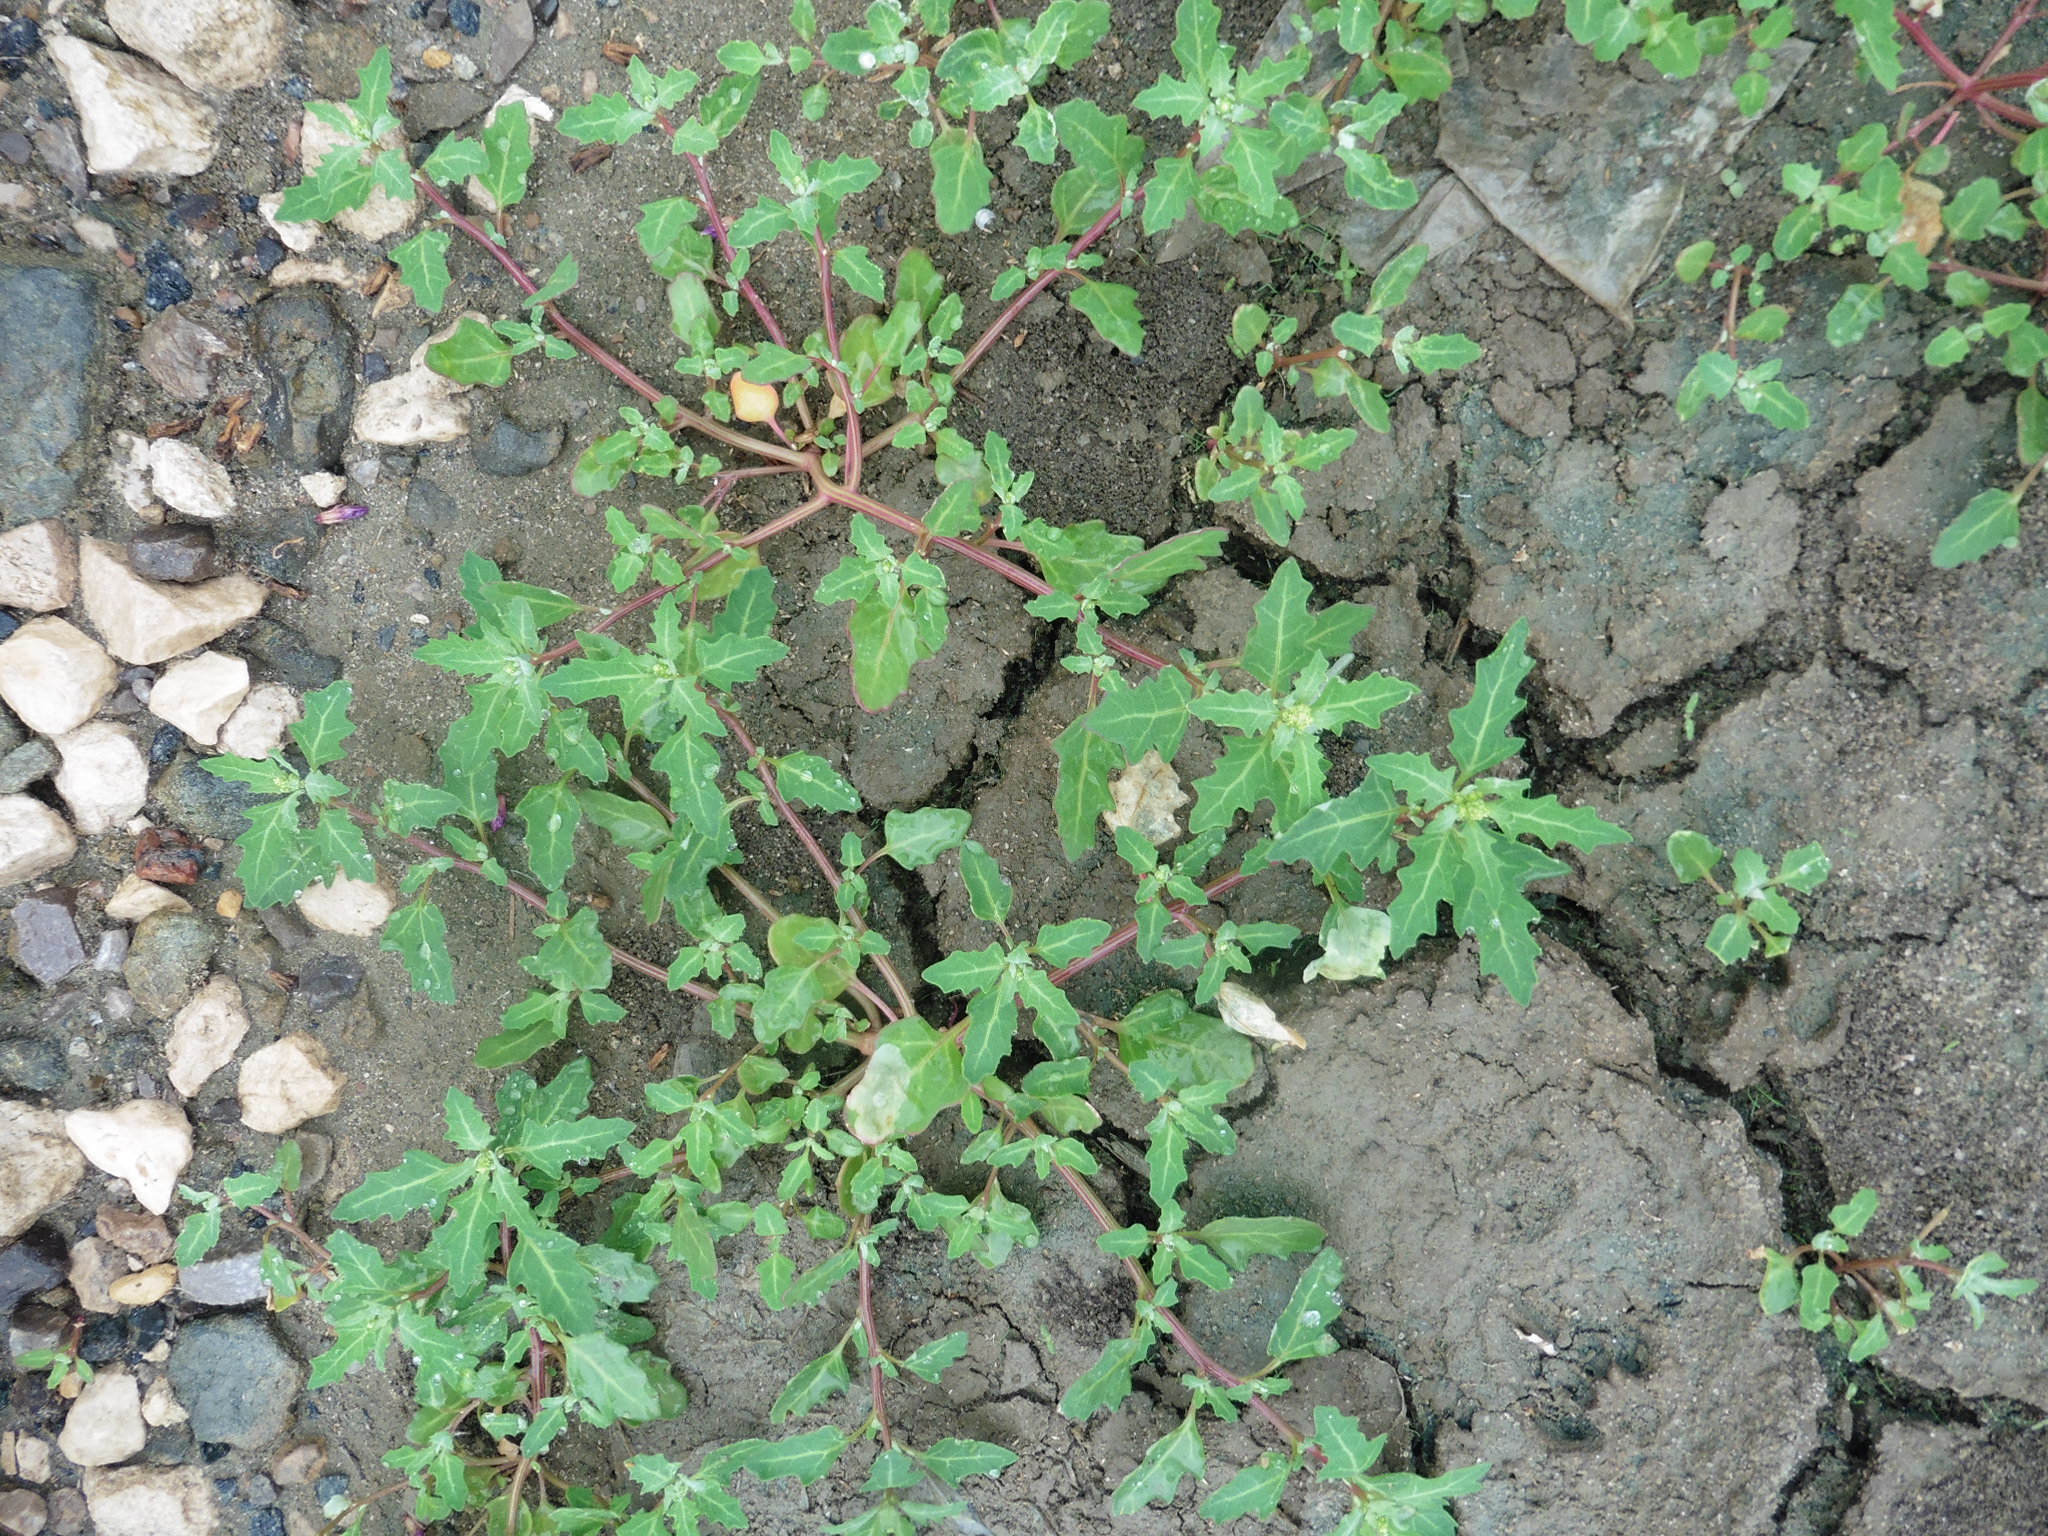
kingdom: Plantae
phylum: Tracheophyta
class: Magnoliopsida
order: Caryophyllales
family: Amaranthaceae
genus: Oxybasis
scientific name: Oxybasis glauca
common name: Glaucous goosefoot
